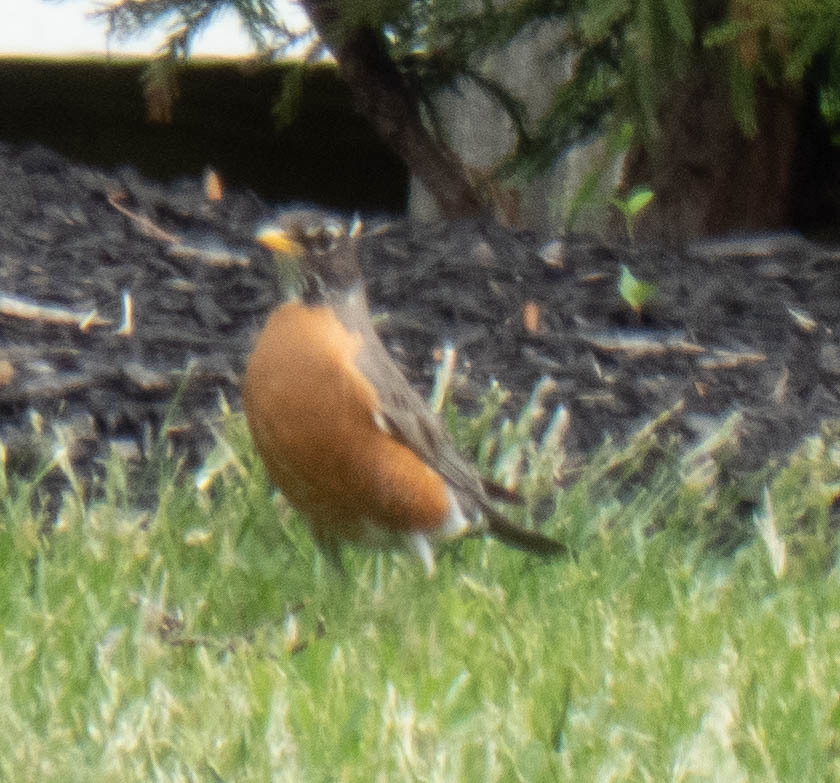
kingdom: Animalia
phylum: Chordata
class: Aves
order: Passeriformes
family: Turdidae
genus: Turdus
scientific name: Turdus migratorius
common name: American robin
